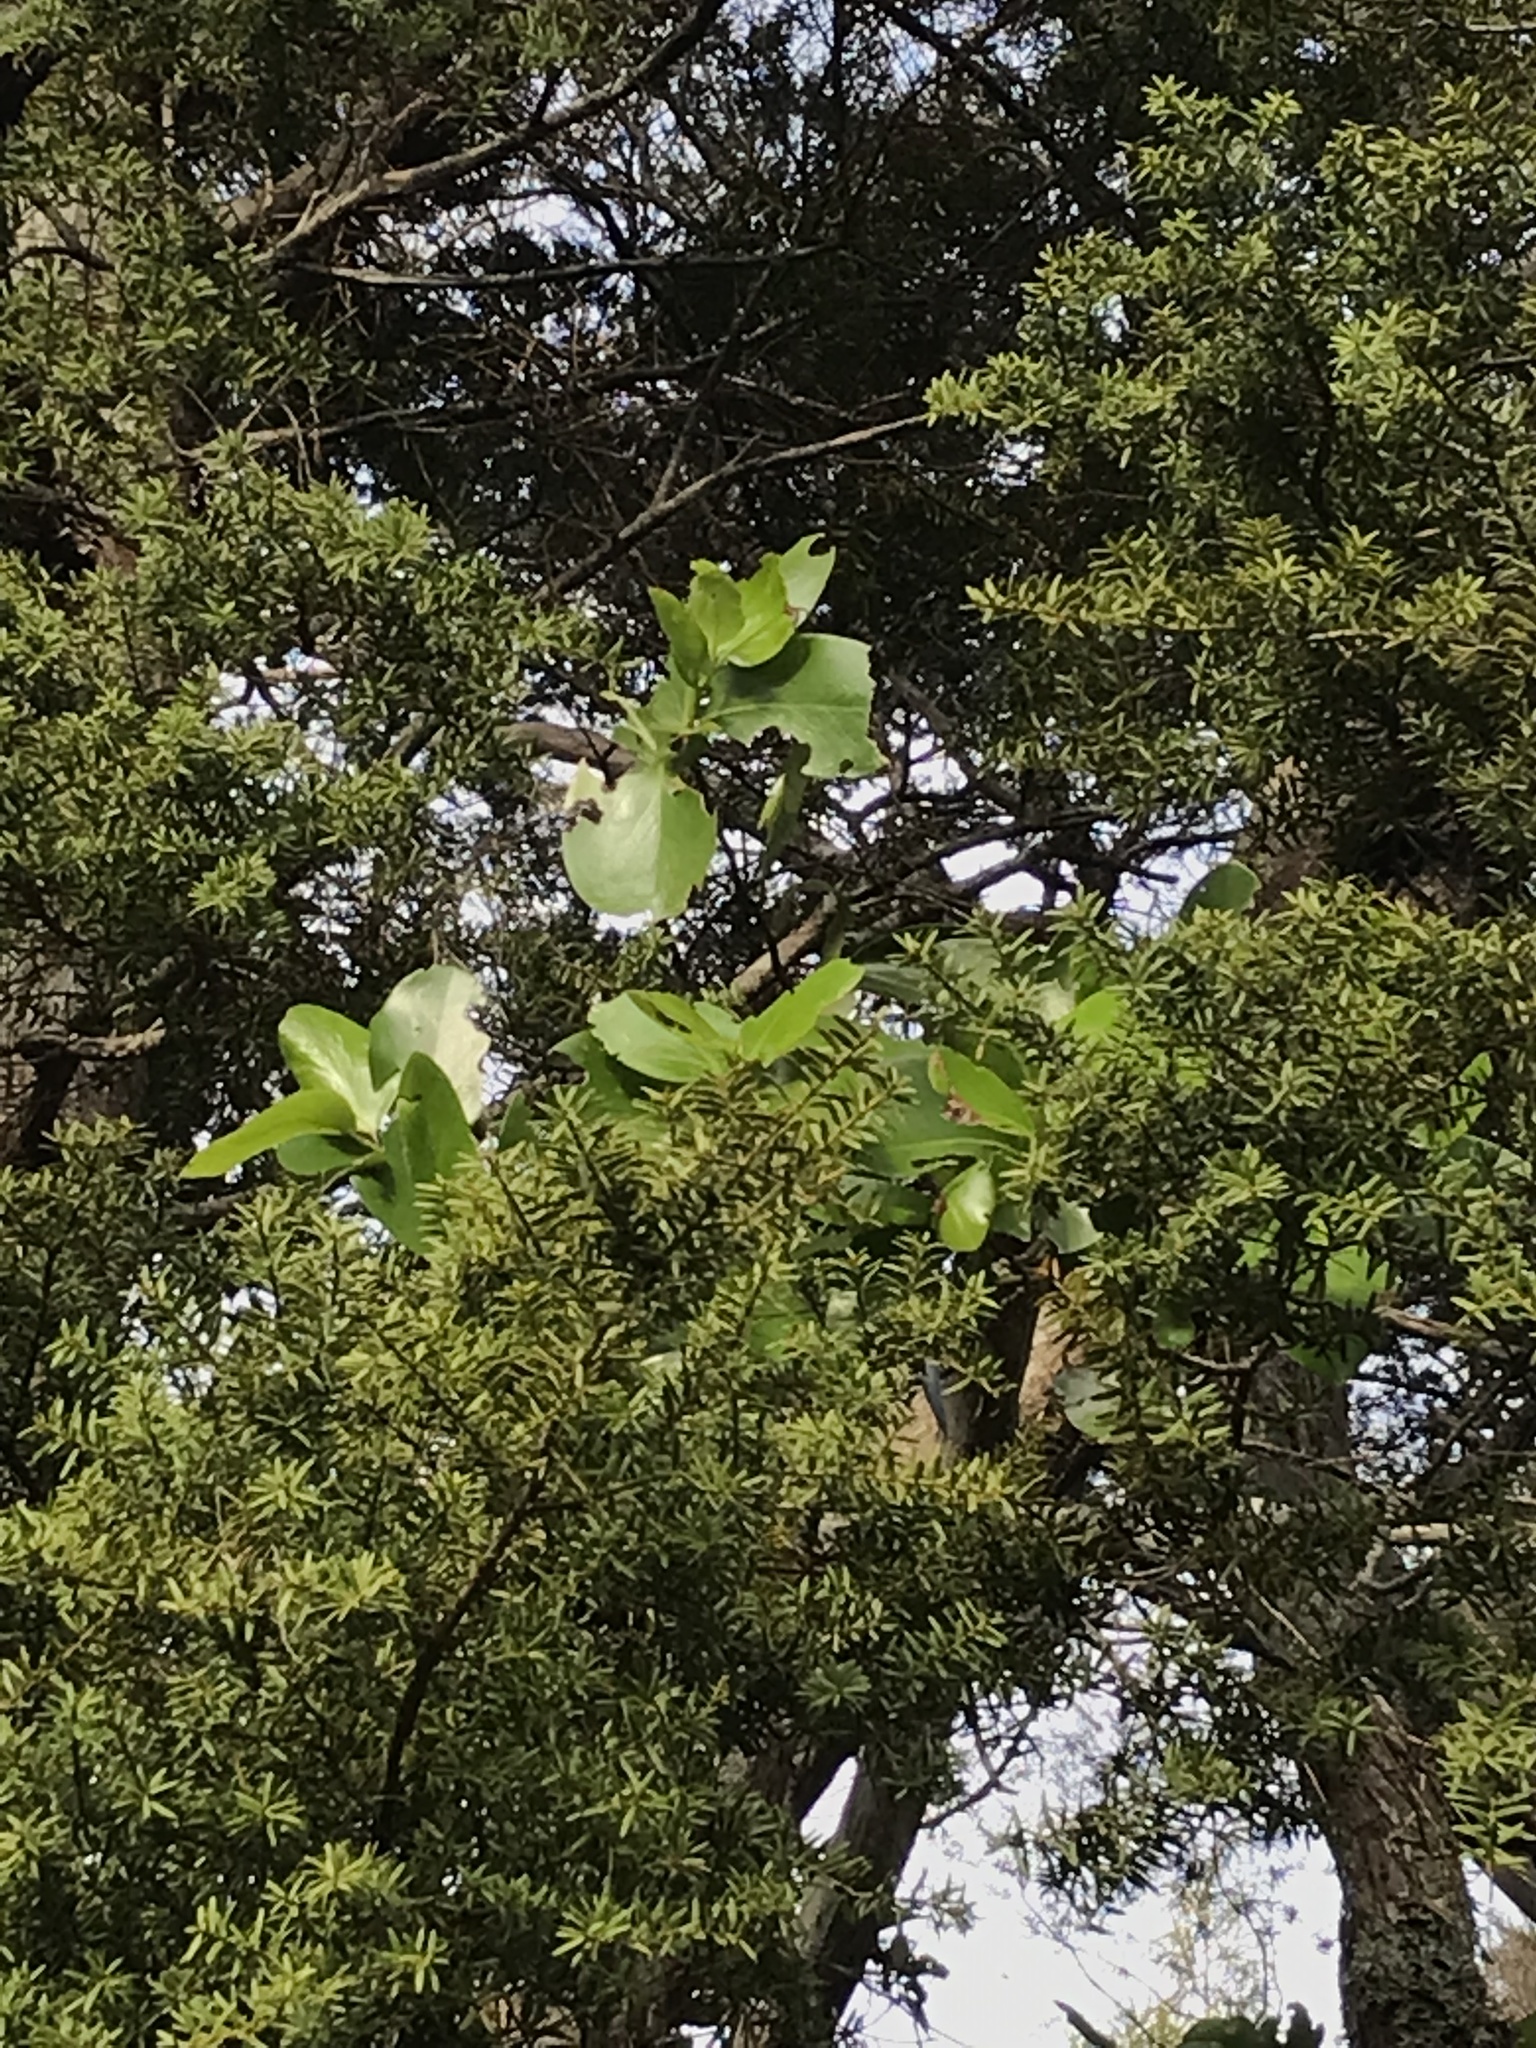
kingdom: Plantae
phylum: Tracheophyta
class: Magnoliopsida
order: Apiales
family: Griseliniaceae
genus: Griselinia
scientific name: Griselinia lucida
